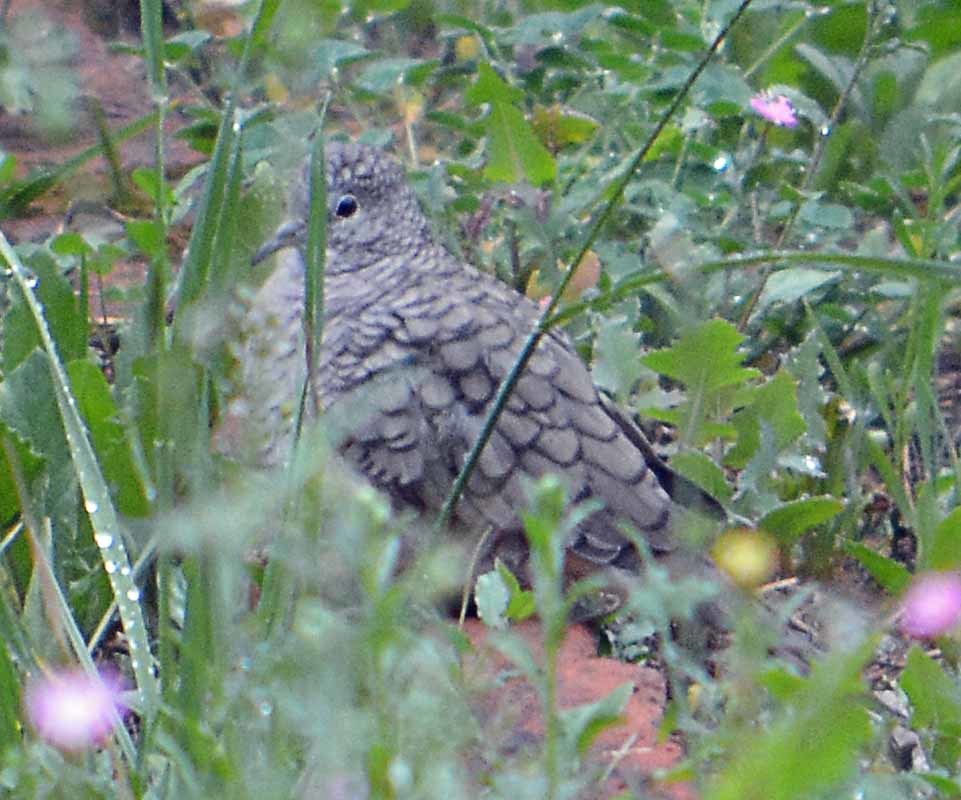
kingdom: Animalia
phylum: Chordata
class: Aves
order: Columbiformes
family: Columbidae
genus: Columbina
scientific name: Columbina inca
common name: Inca dove
